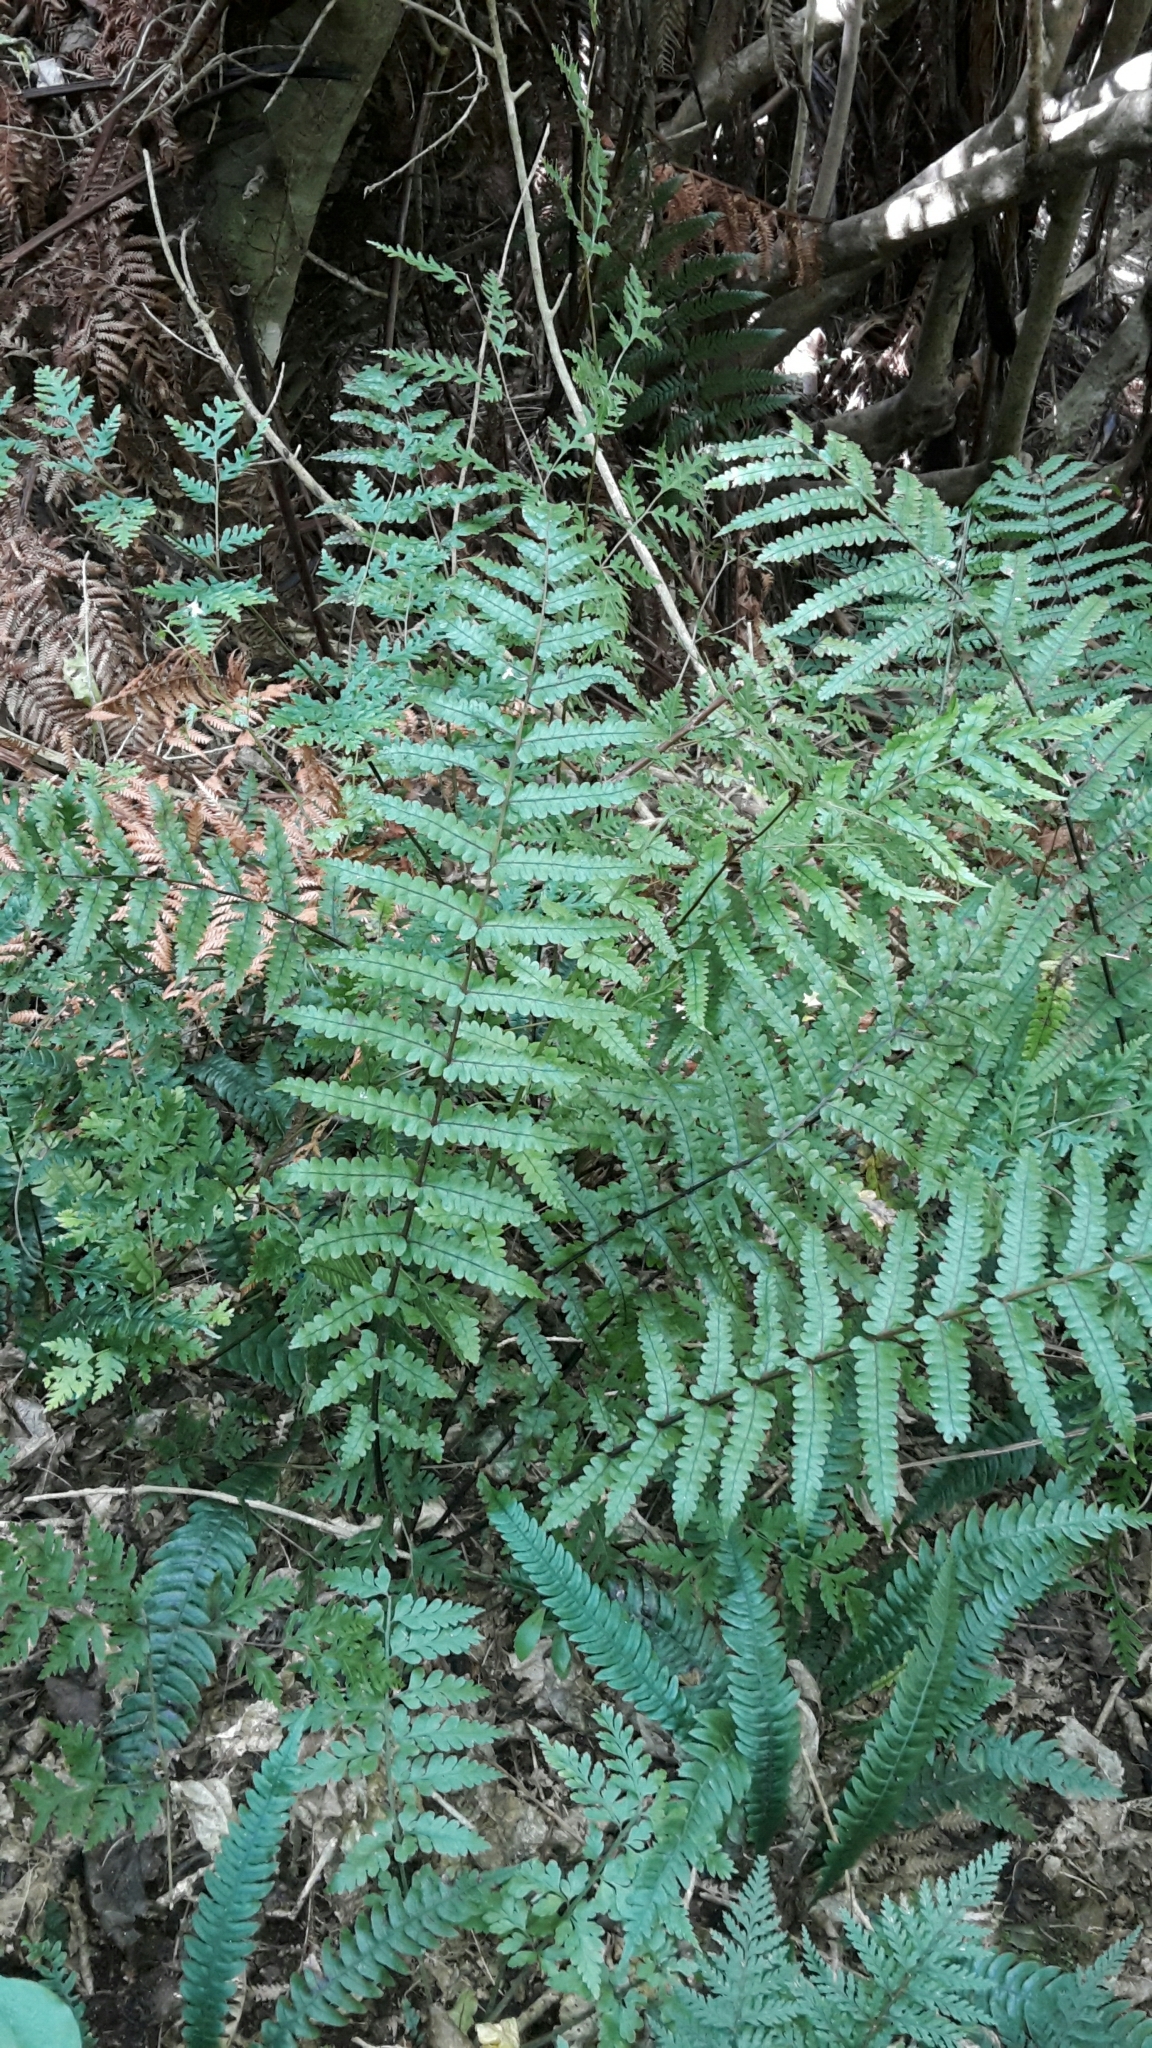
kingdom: Plantae
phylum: Tracheophyta
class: Polypodiopsida
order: Polypodiales
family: Thelypteridaceae
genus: Pakau
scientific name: Pakau pennigera
